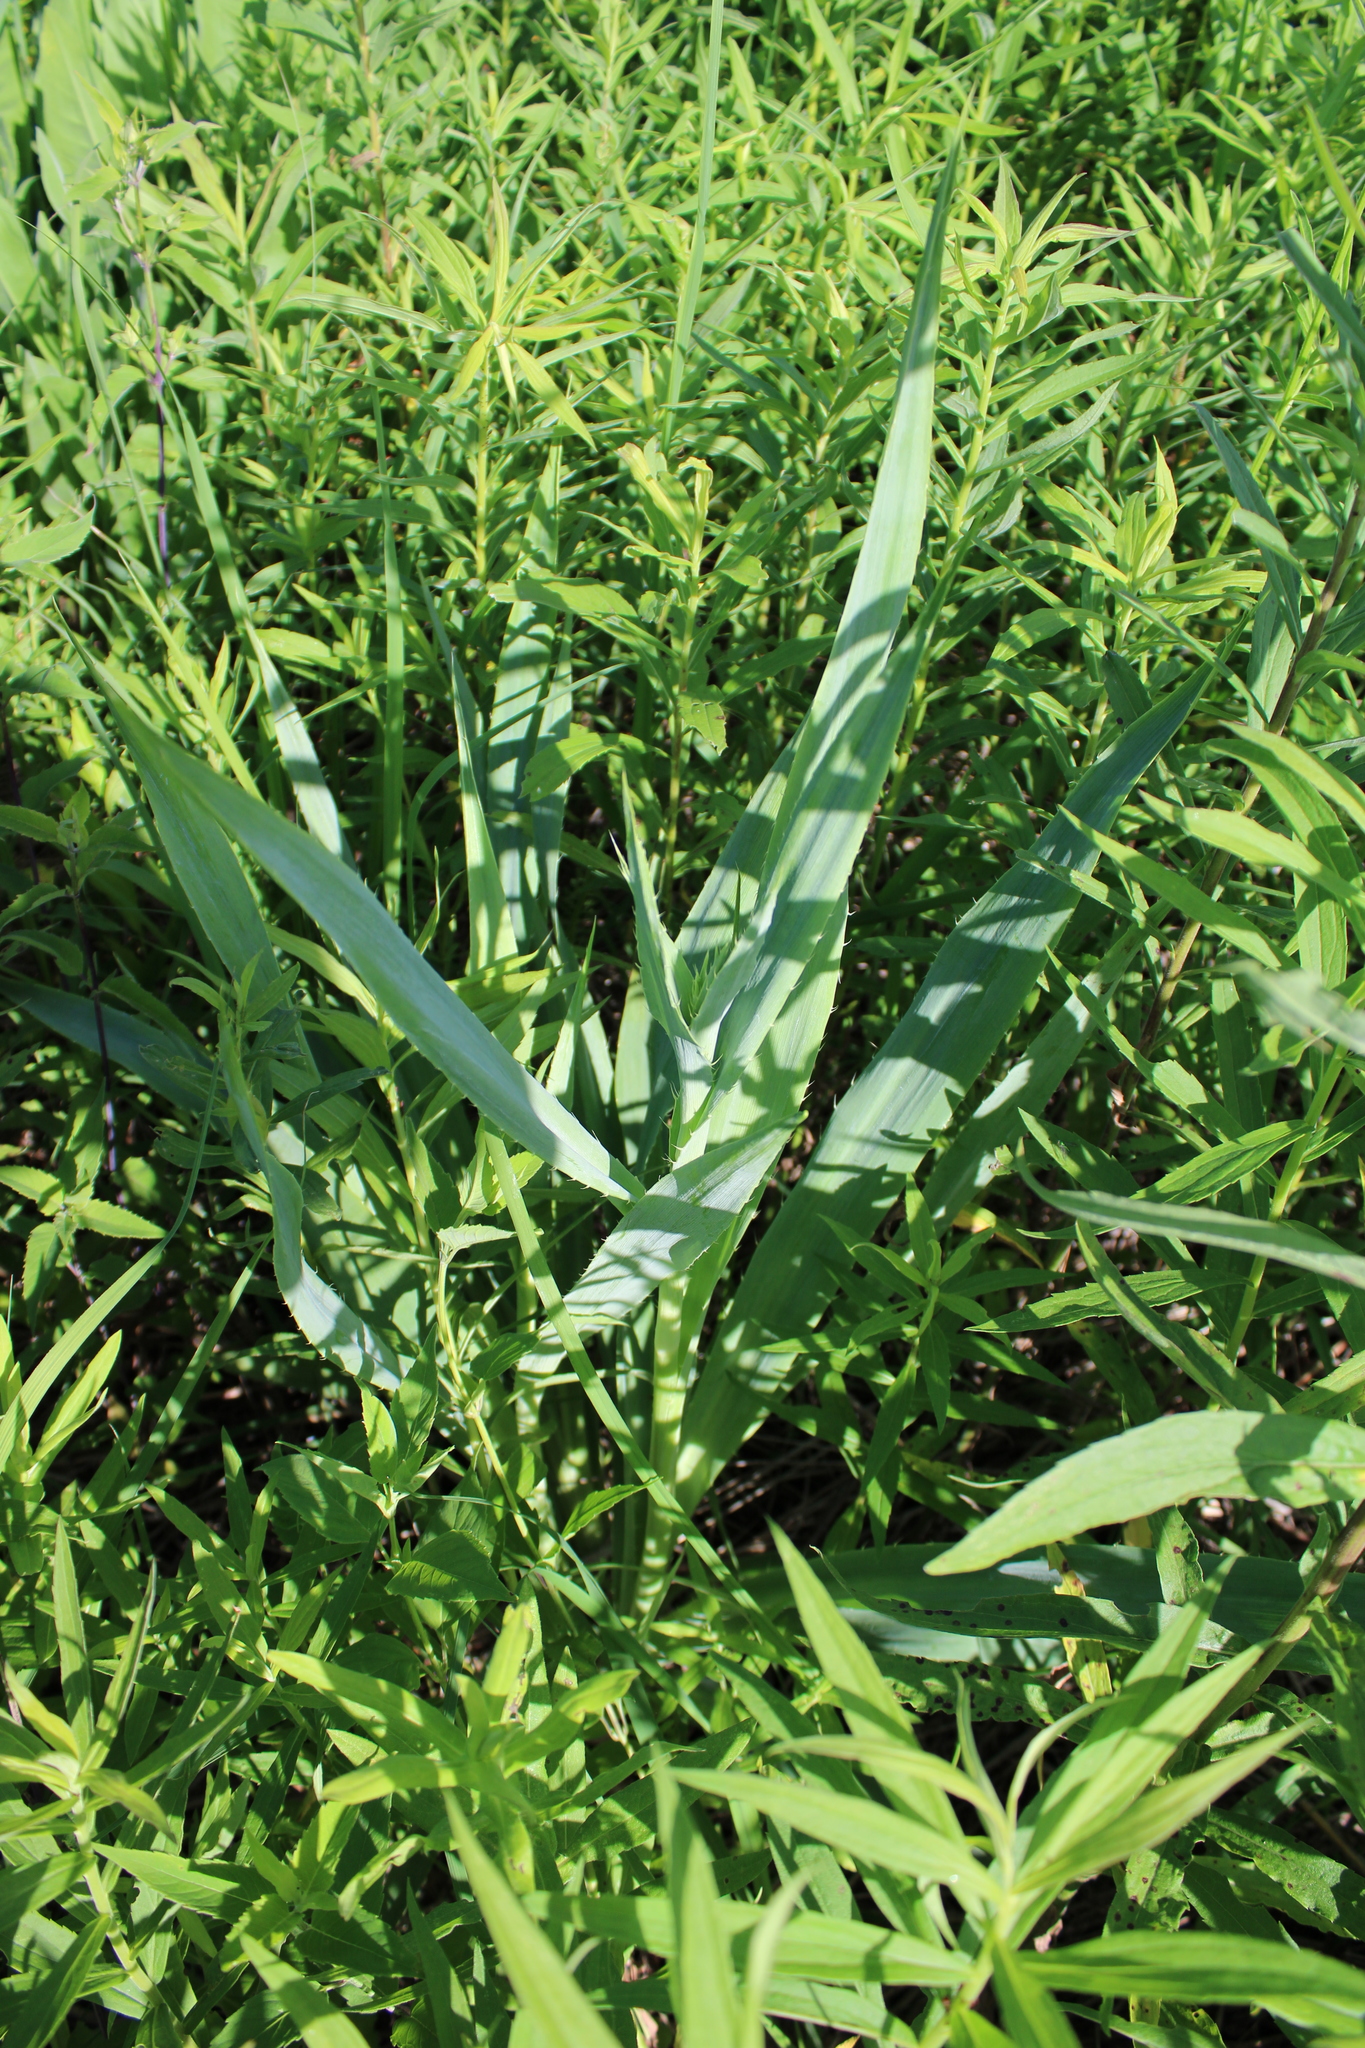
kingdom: Plantae
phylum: Tracheophyta
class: Magnoliopsida
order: Apiales
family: Apiaceae
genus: Eryngium
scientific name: Eryngium yuccifolium
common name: Button eryngo
